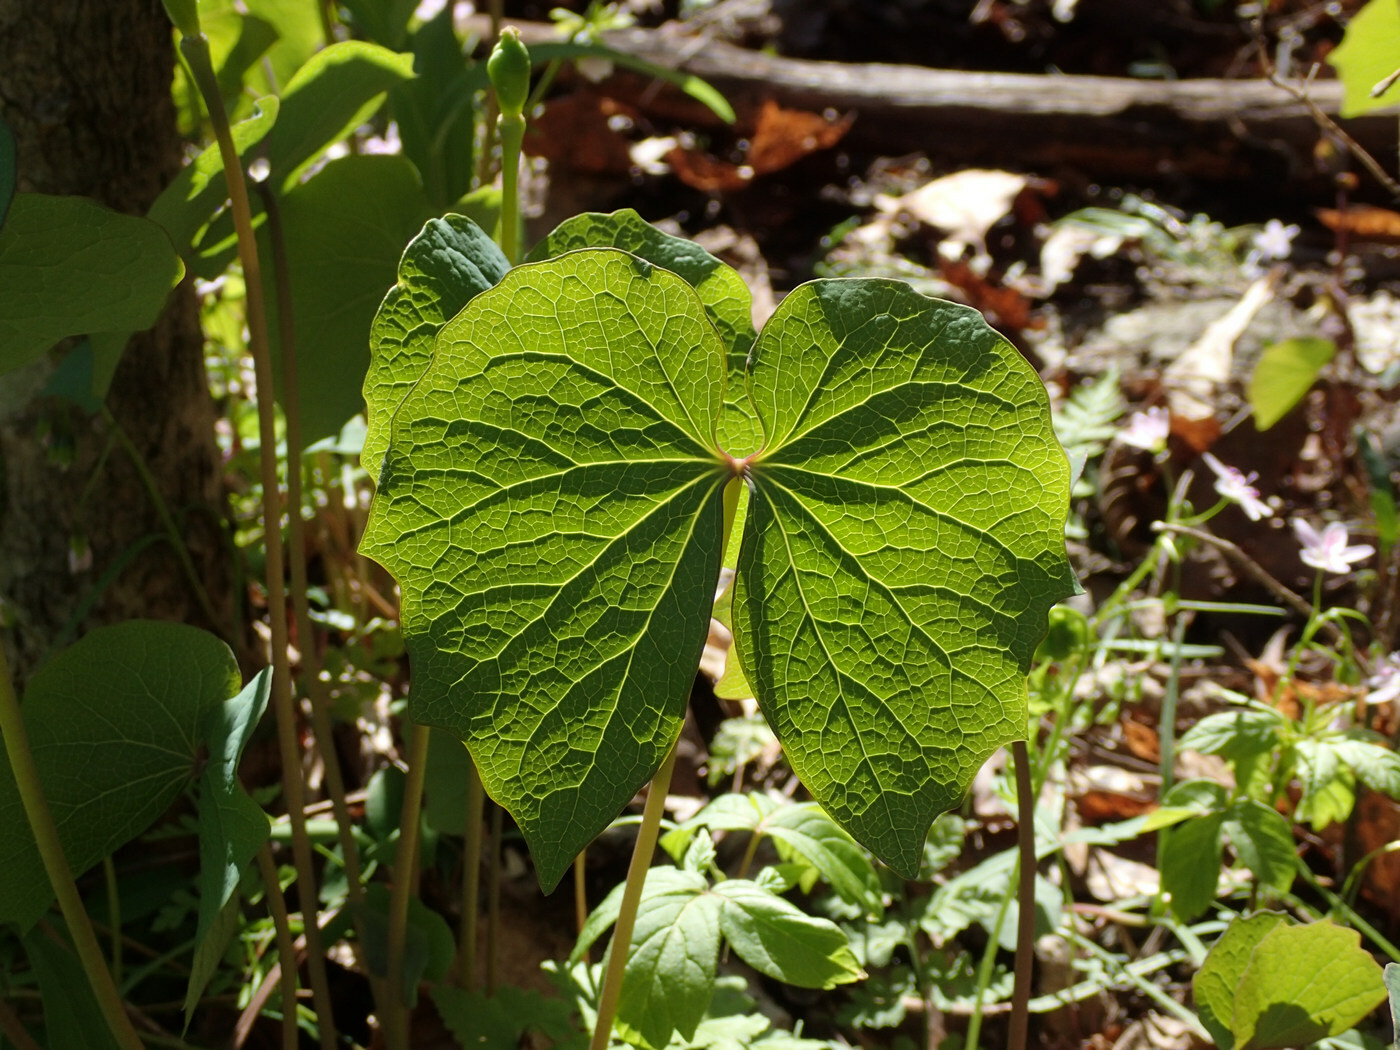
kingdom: Plantae
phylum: Tracheophyta
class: Magnoliopsida
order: Ranunculales
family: Berberidaceae
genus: Jeffersonia
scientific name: Jeffersonia diphylla
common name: Rheumatism-root
